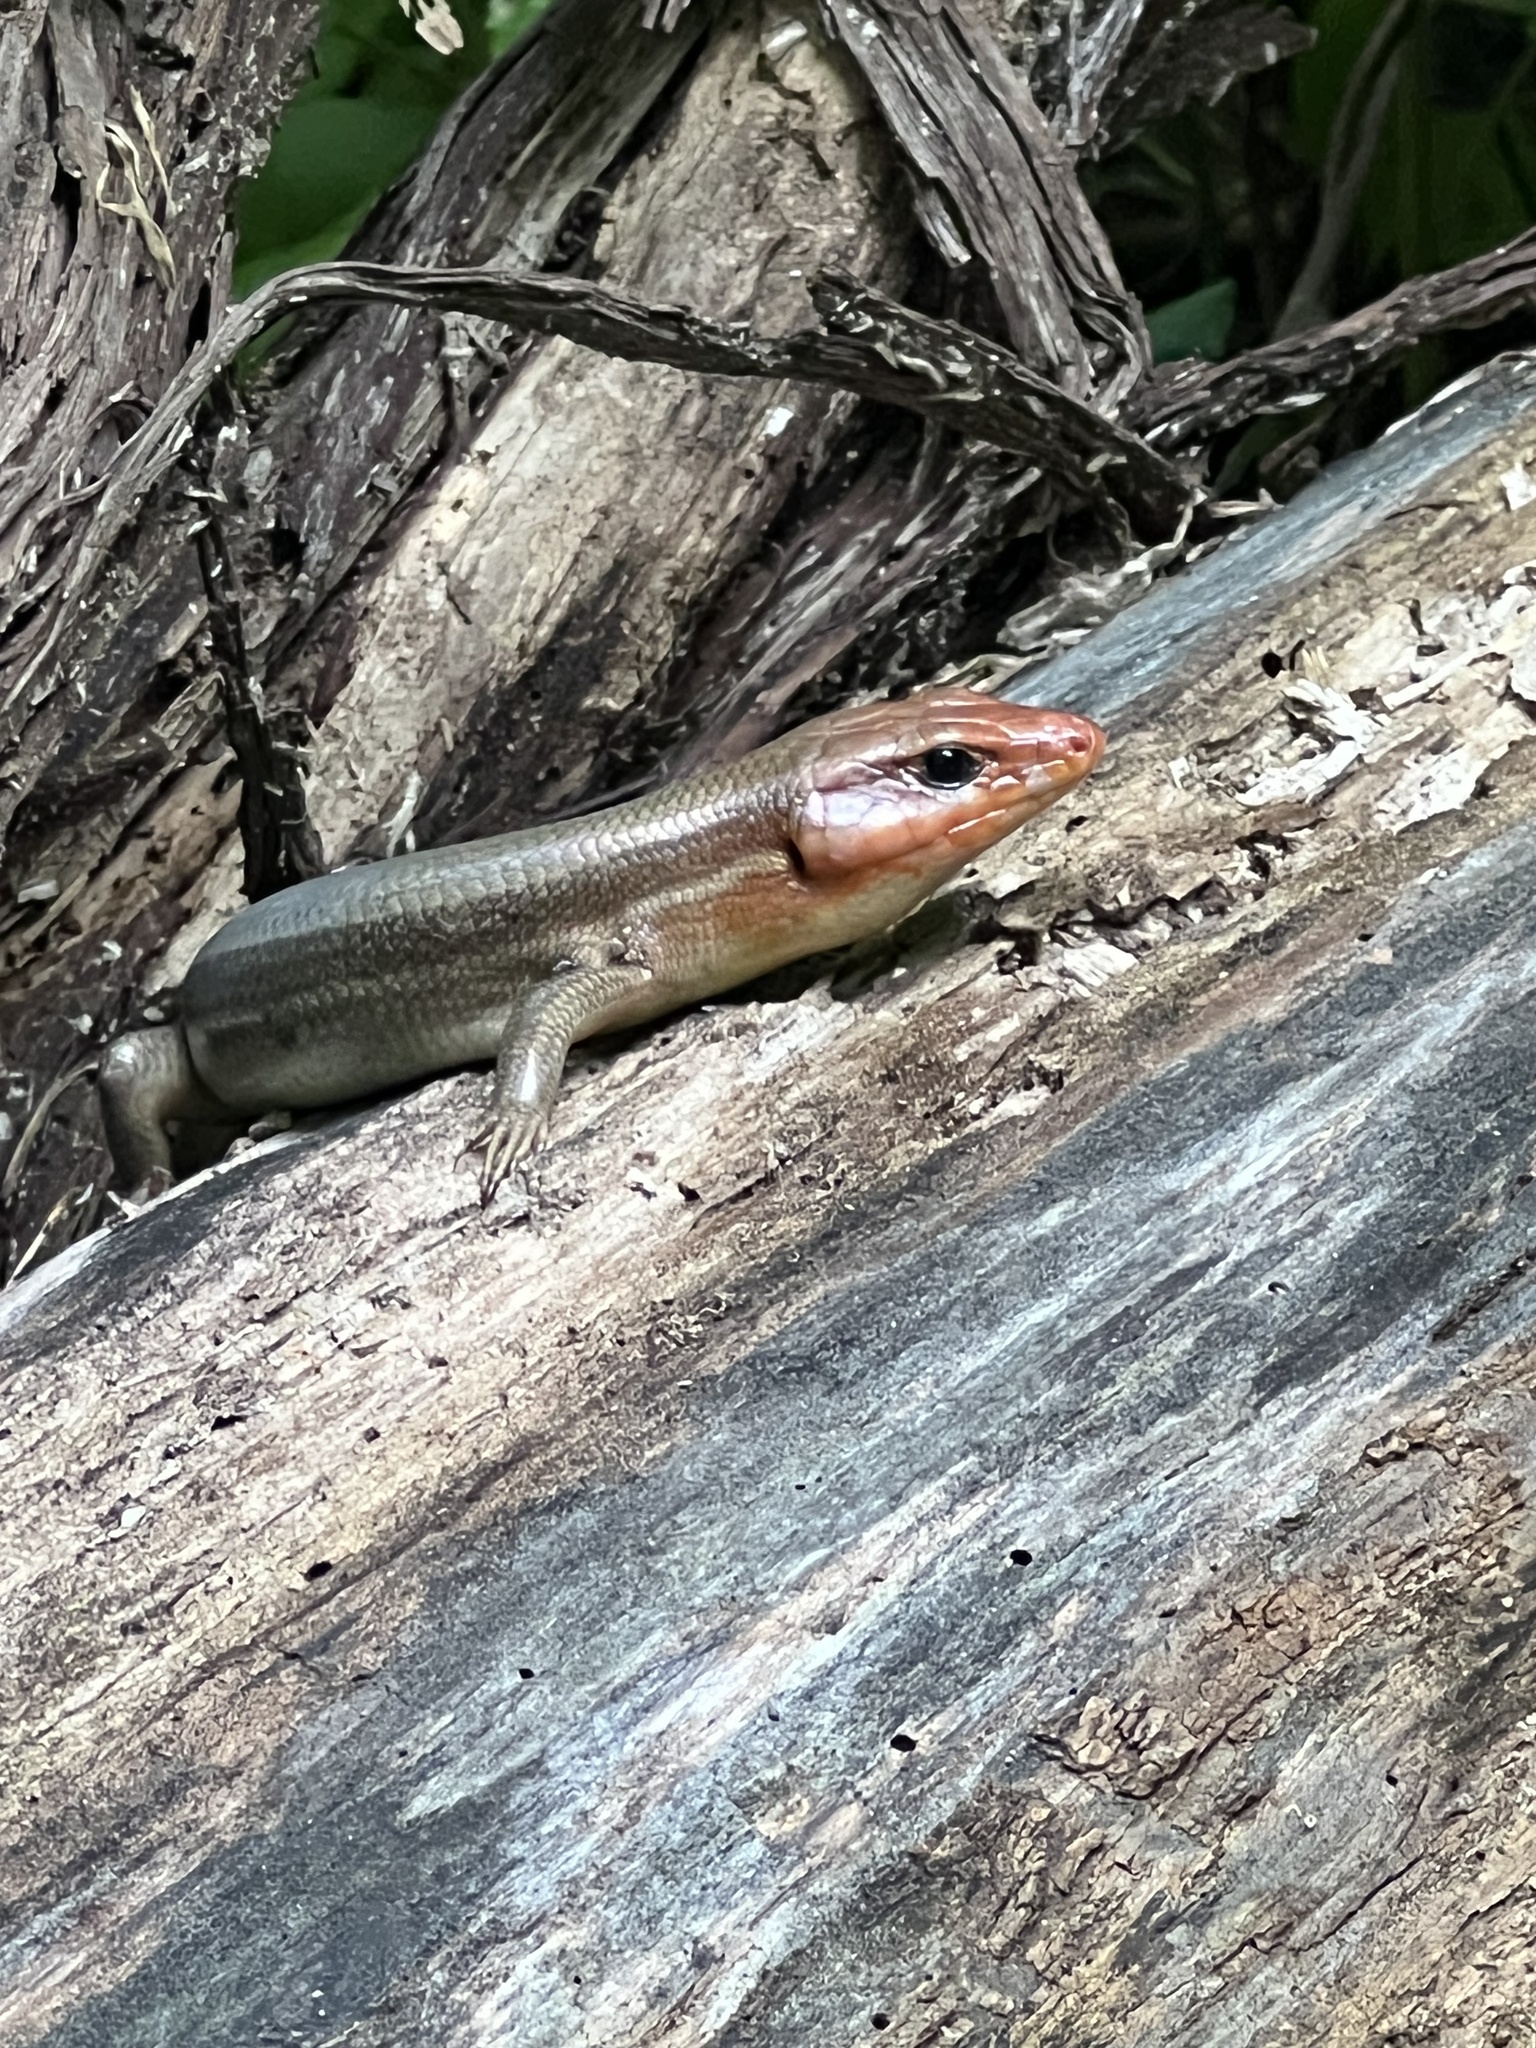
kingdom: Animalia
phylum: Chordata
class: Squamata
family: Scincidae
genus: Plestiodon
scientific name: Plestiodon laticeps
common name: Broadhead skink
